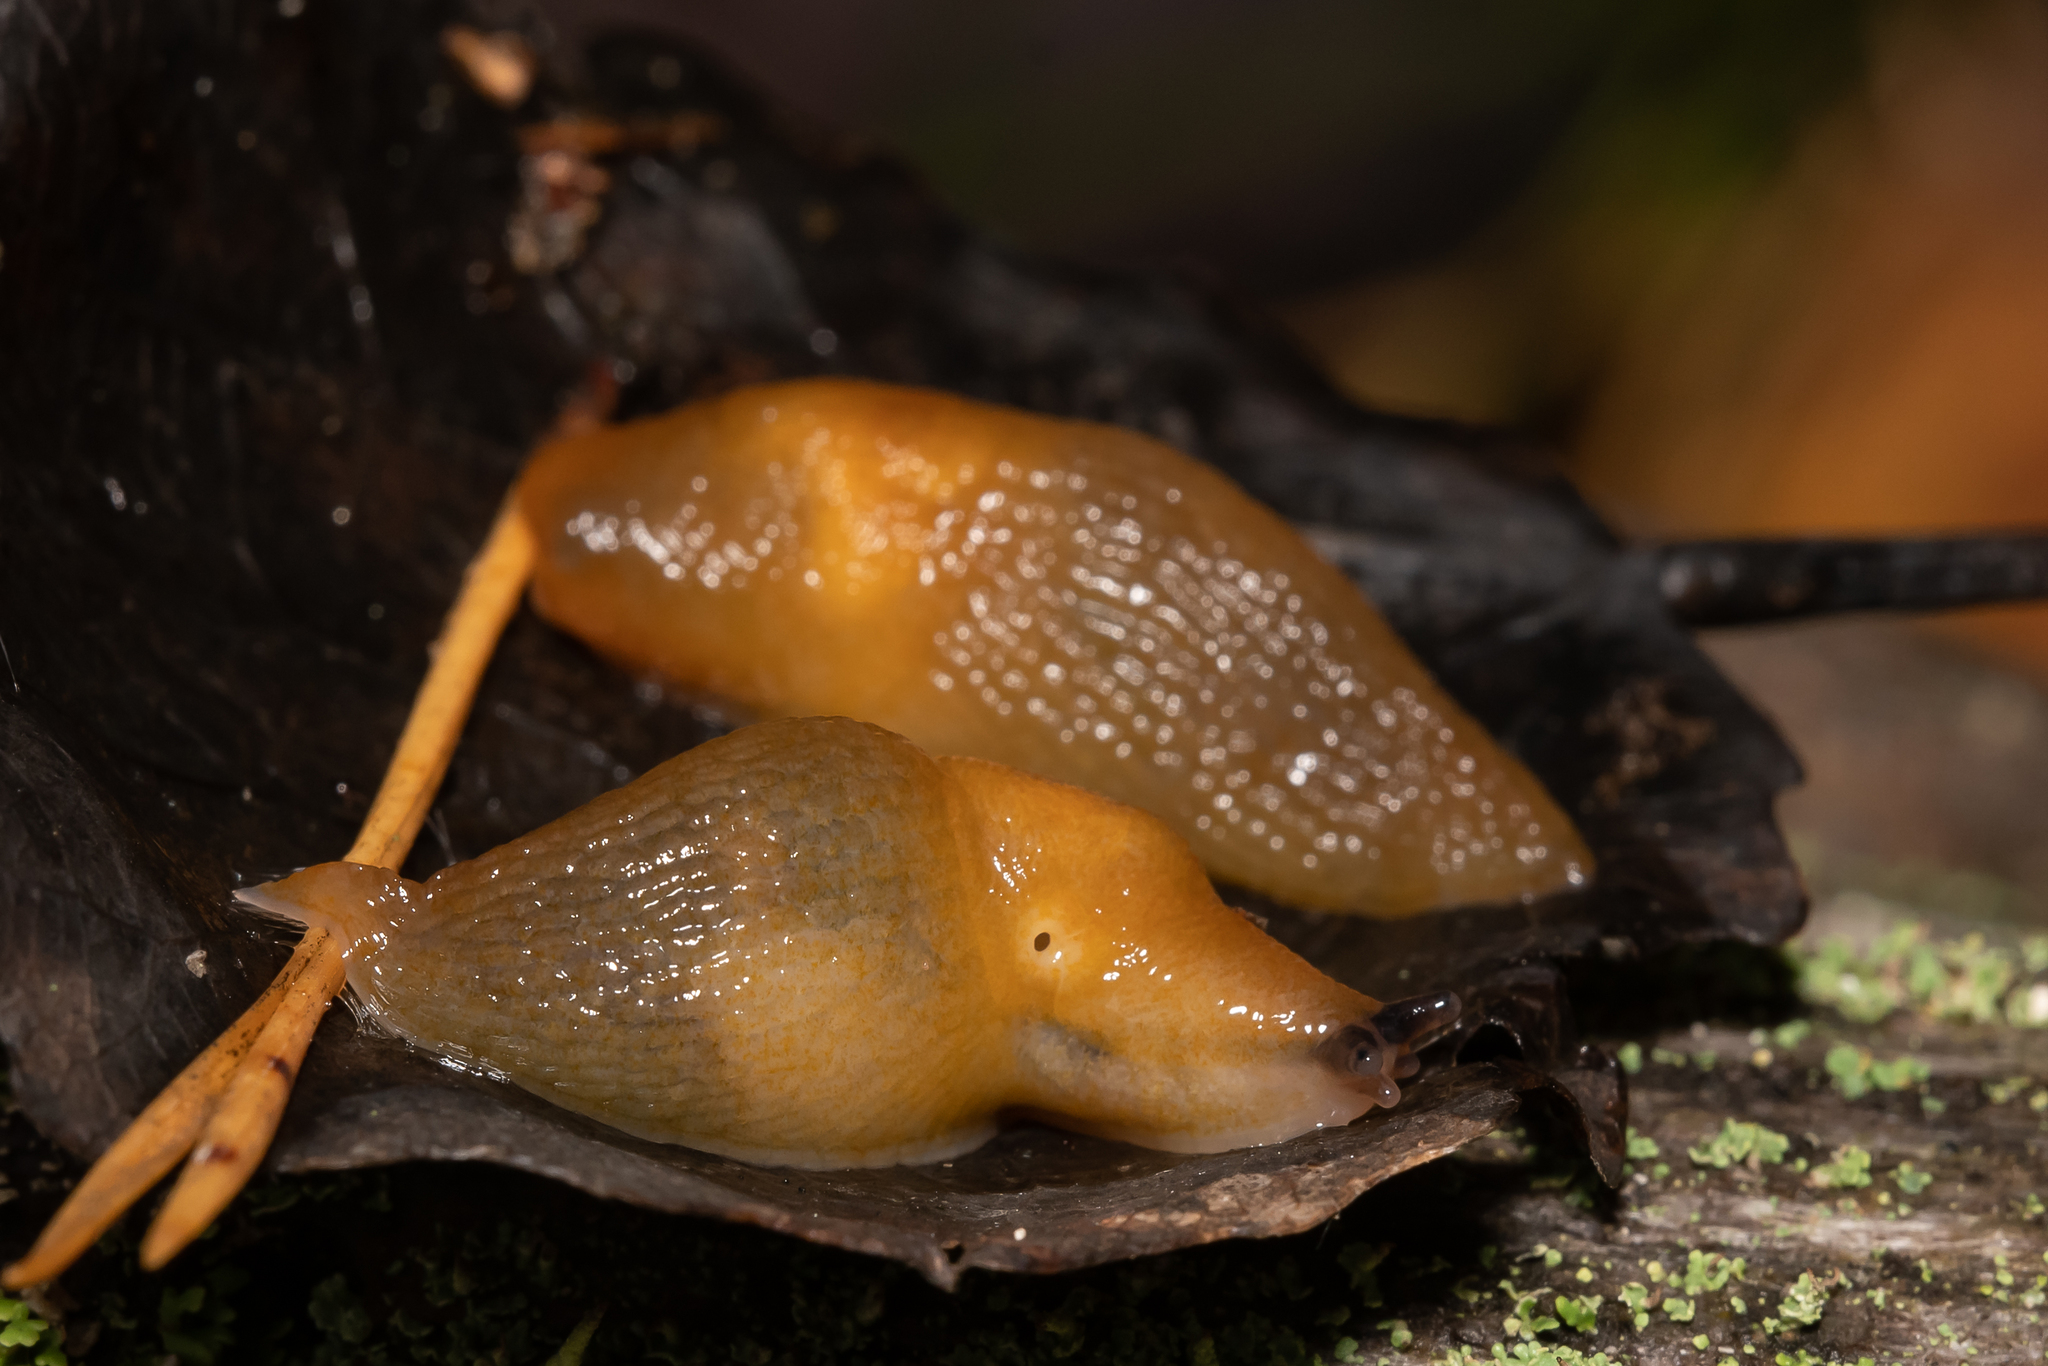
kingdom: Animalia
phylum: Mollusca
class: Gastropoda
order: Stylommatophora
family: Limacidae
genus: Malacolimax
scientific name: Malacolimax tenellus
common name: Lemon slug
